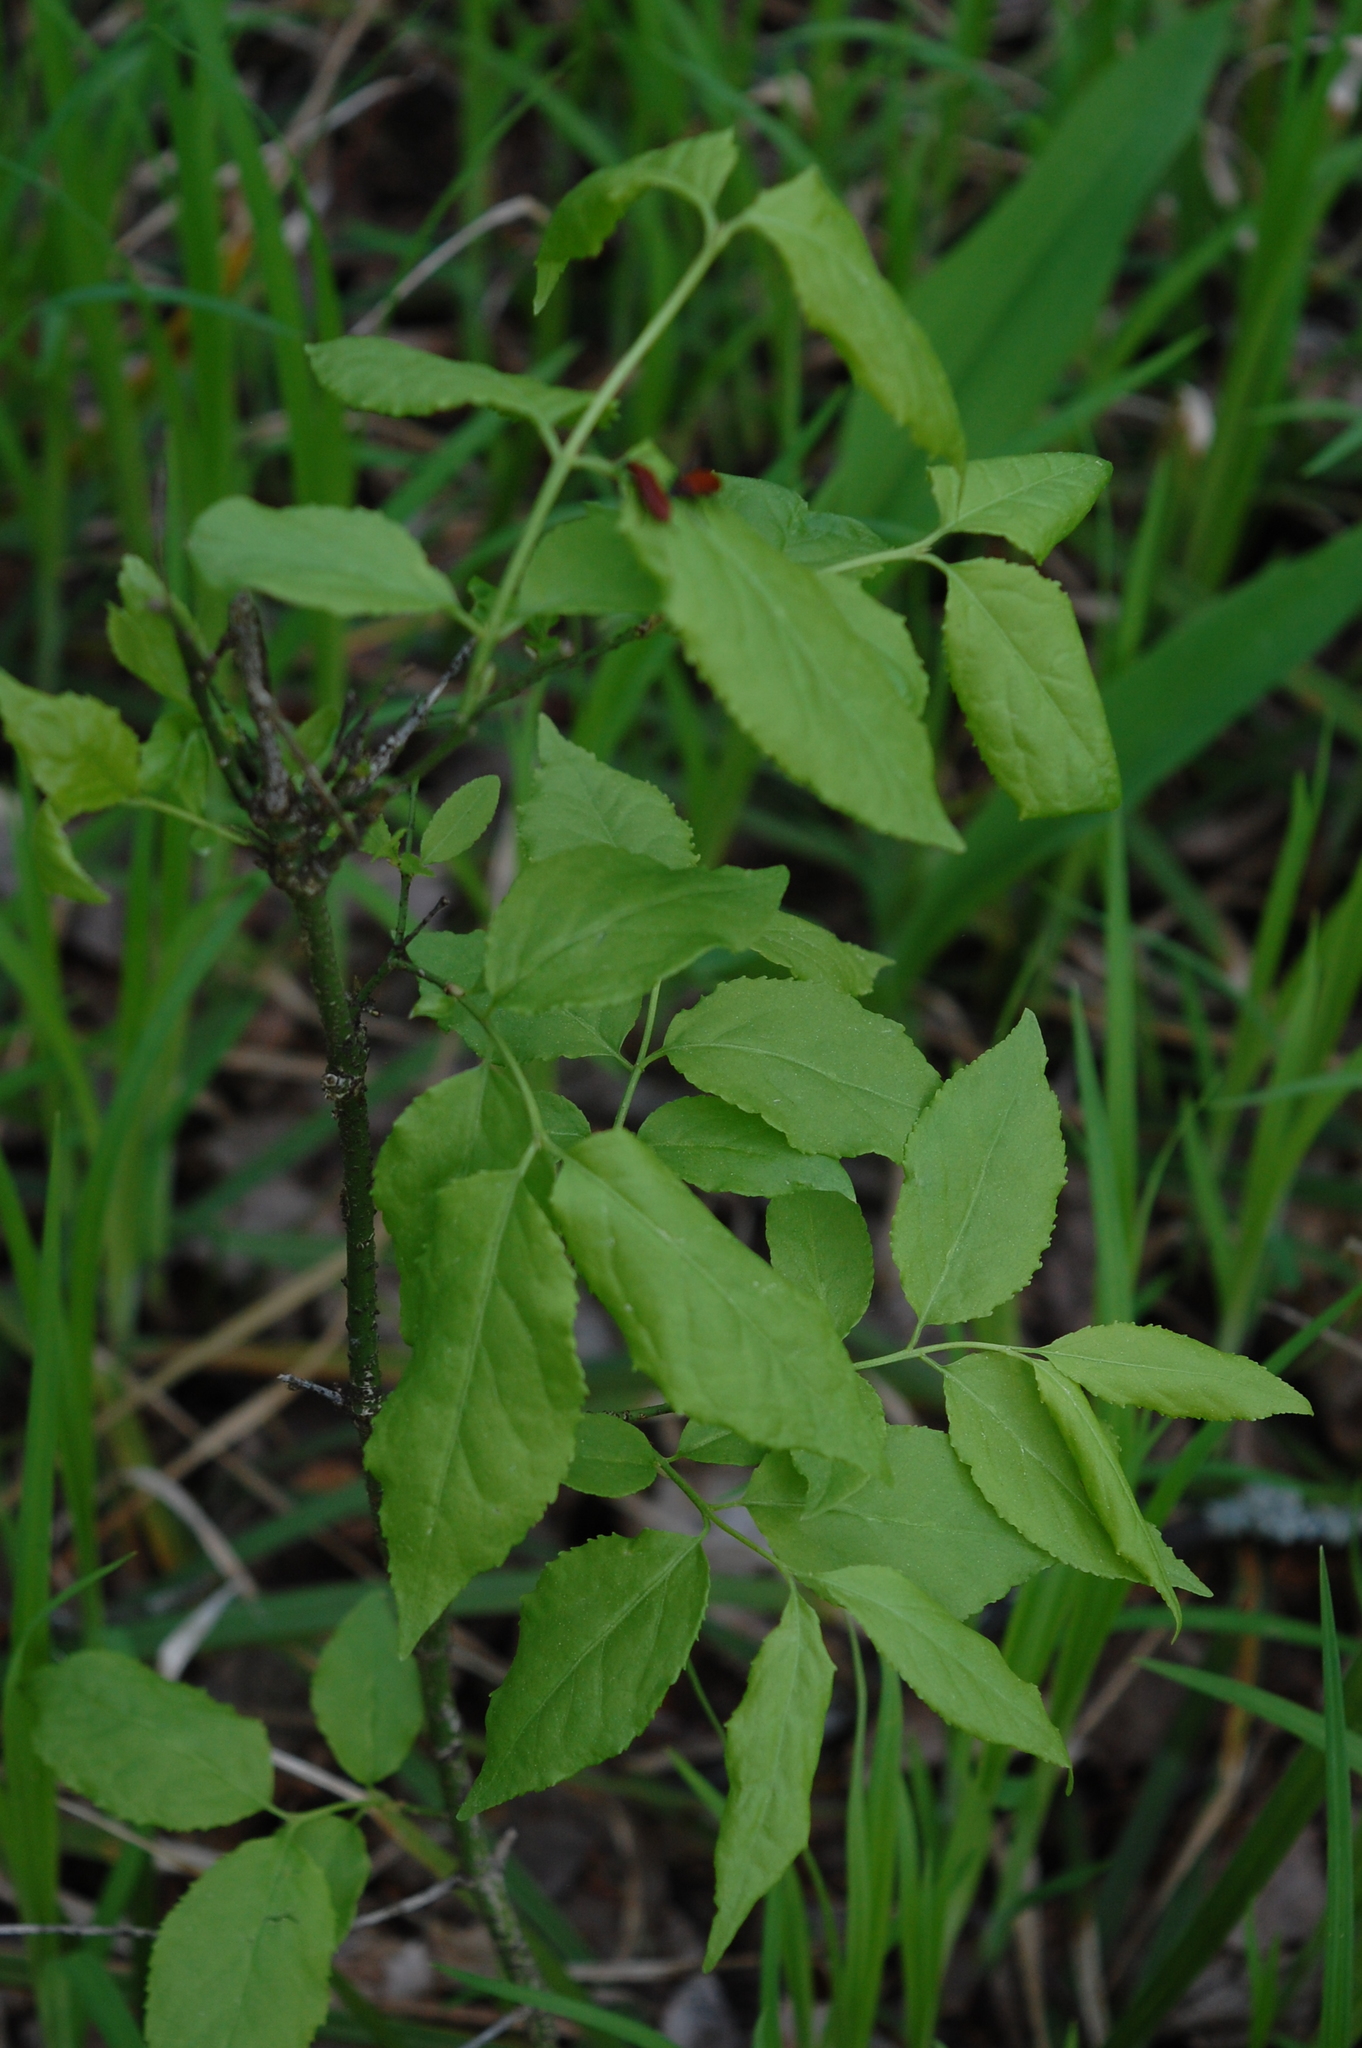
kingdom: Plantae
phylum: Tracheophyta
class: Magnoliopsida
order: Celastrales
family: Celastraceae
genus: Euonymus
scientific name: Euonymus verrucosus
